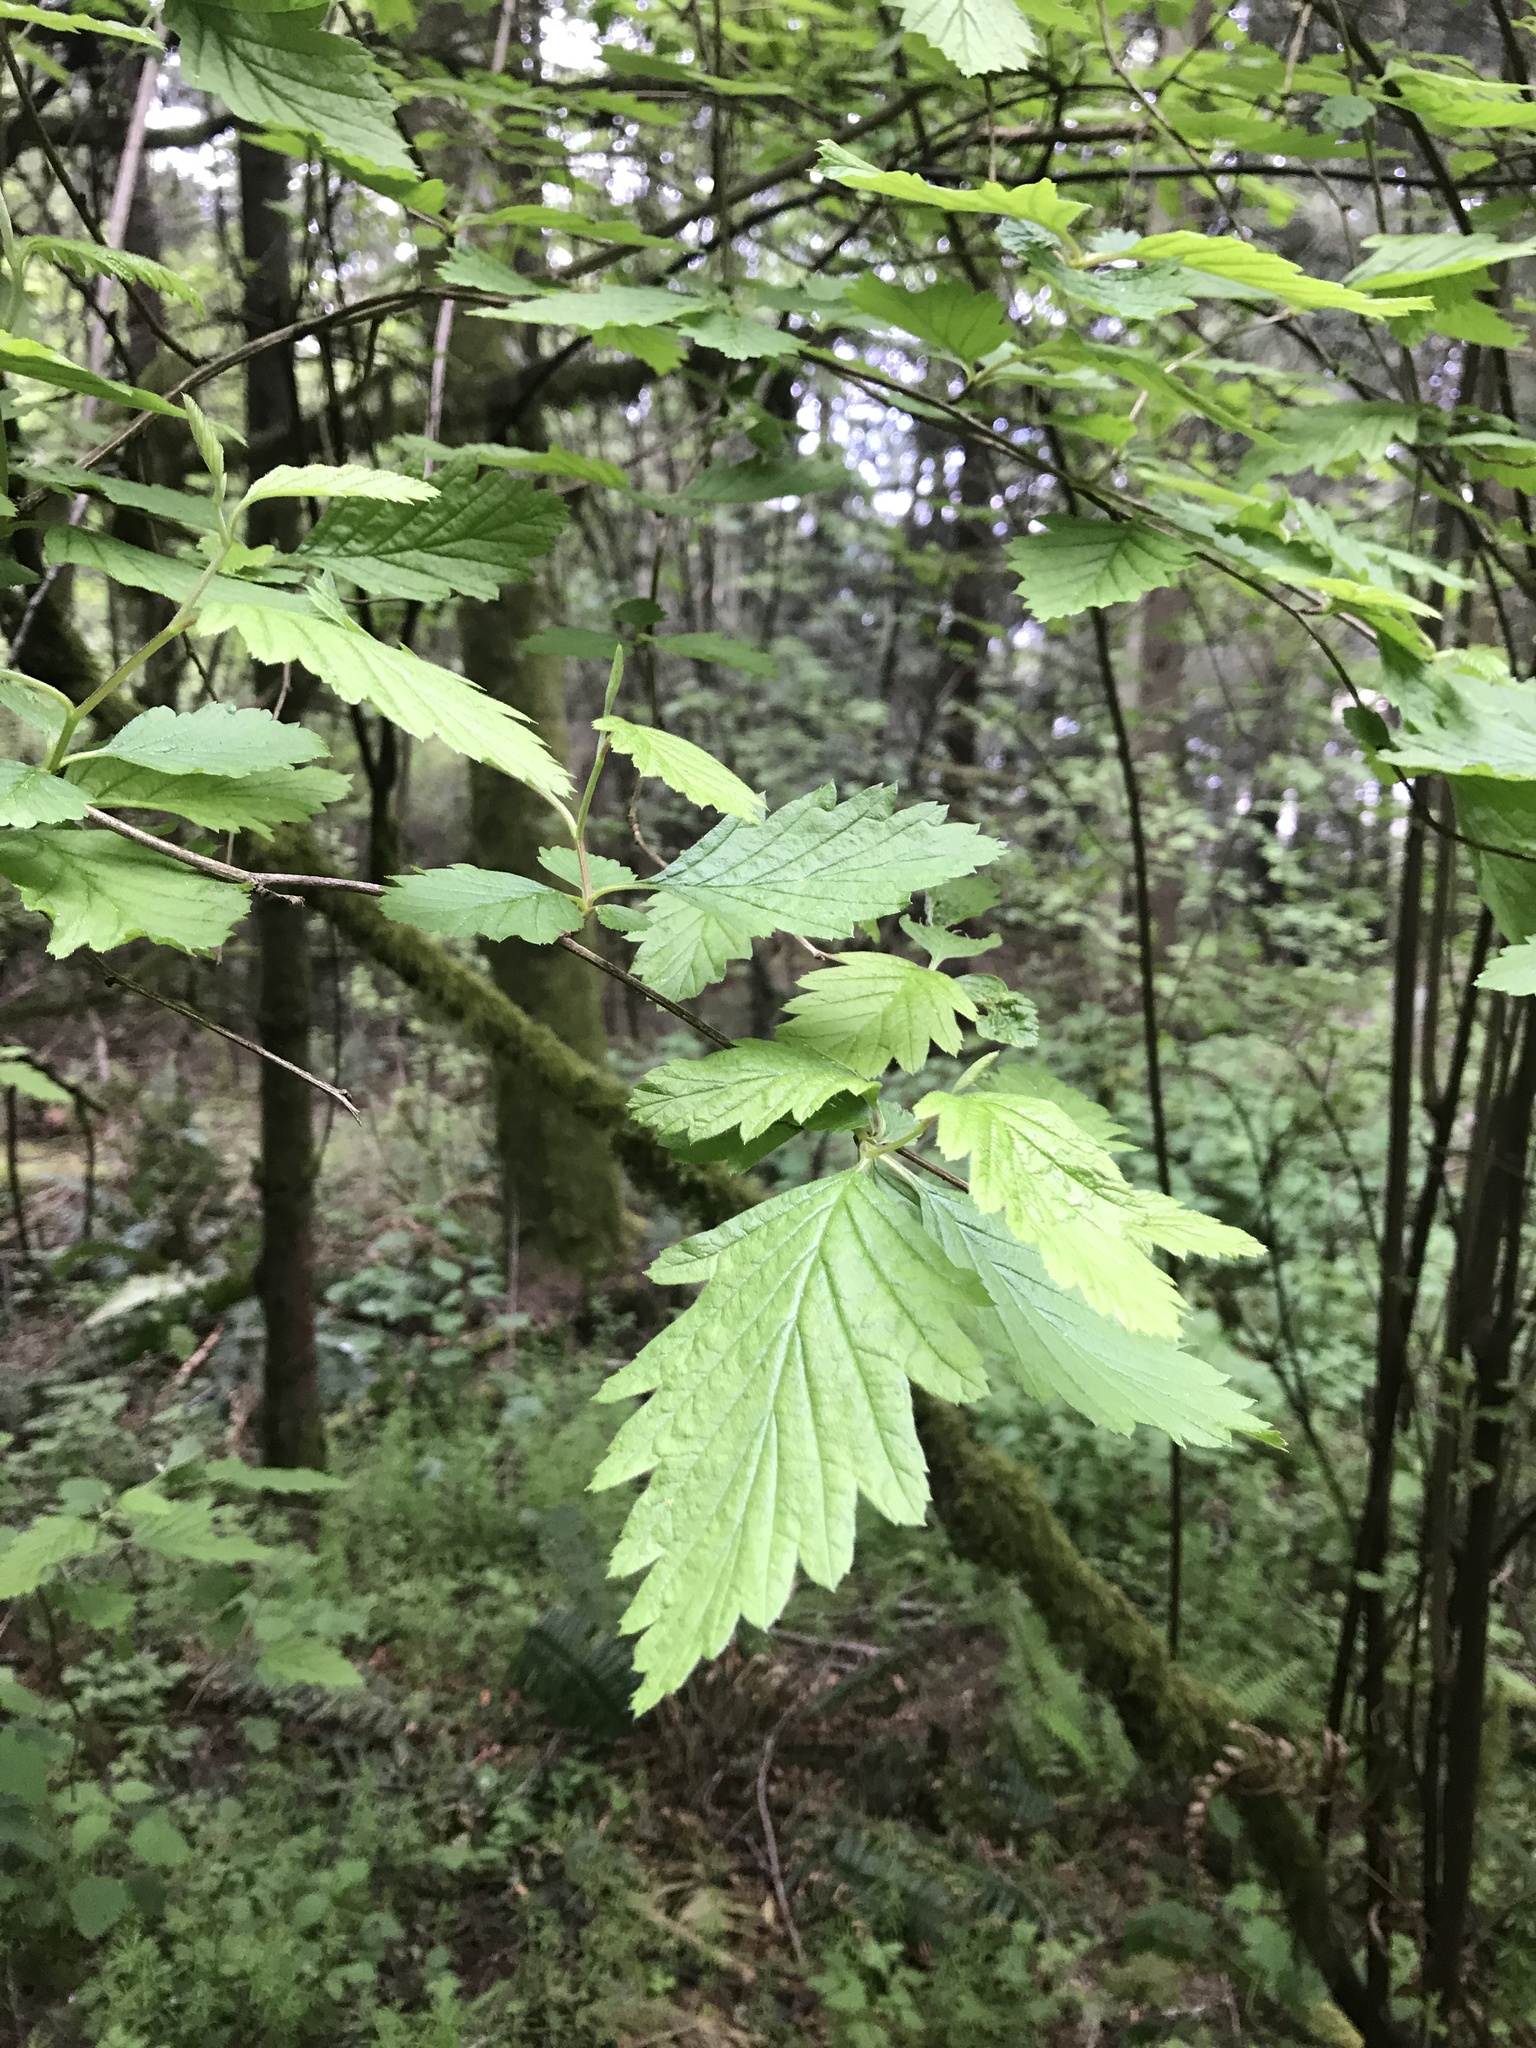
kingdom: Plantae
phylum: Tracheophyta
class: Magnoliopsida
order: Rosales
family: Rosaceae
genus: Holodiscus
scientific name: Holodiscus discolor
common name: Oceanspray
